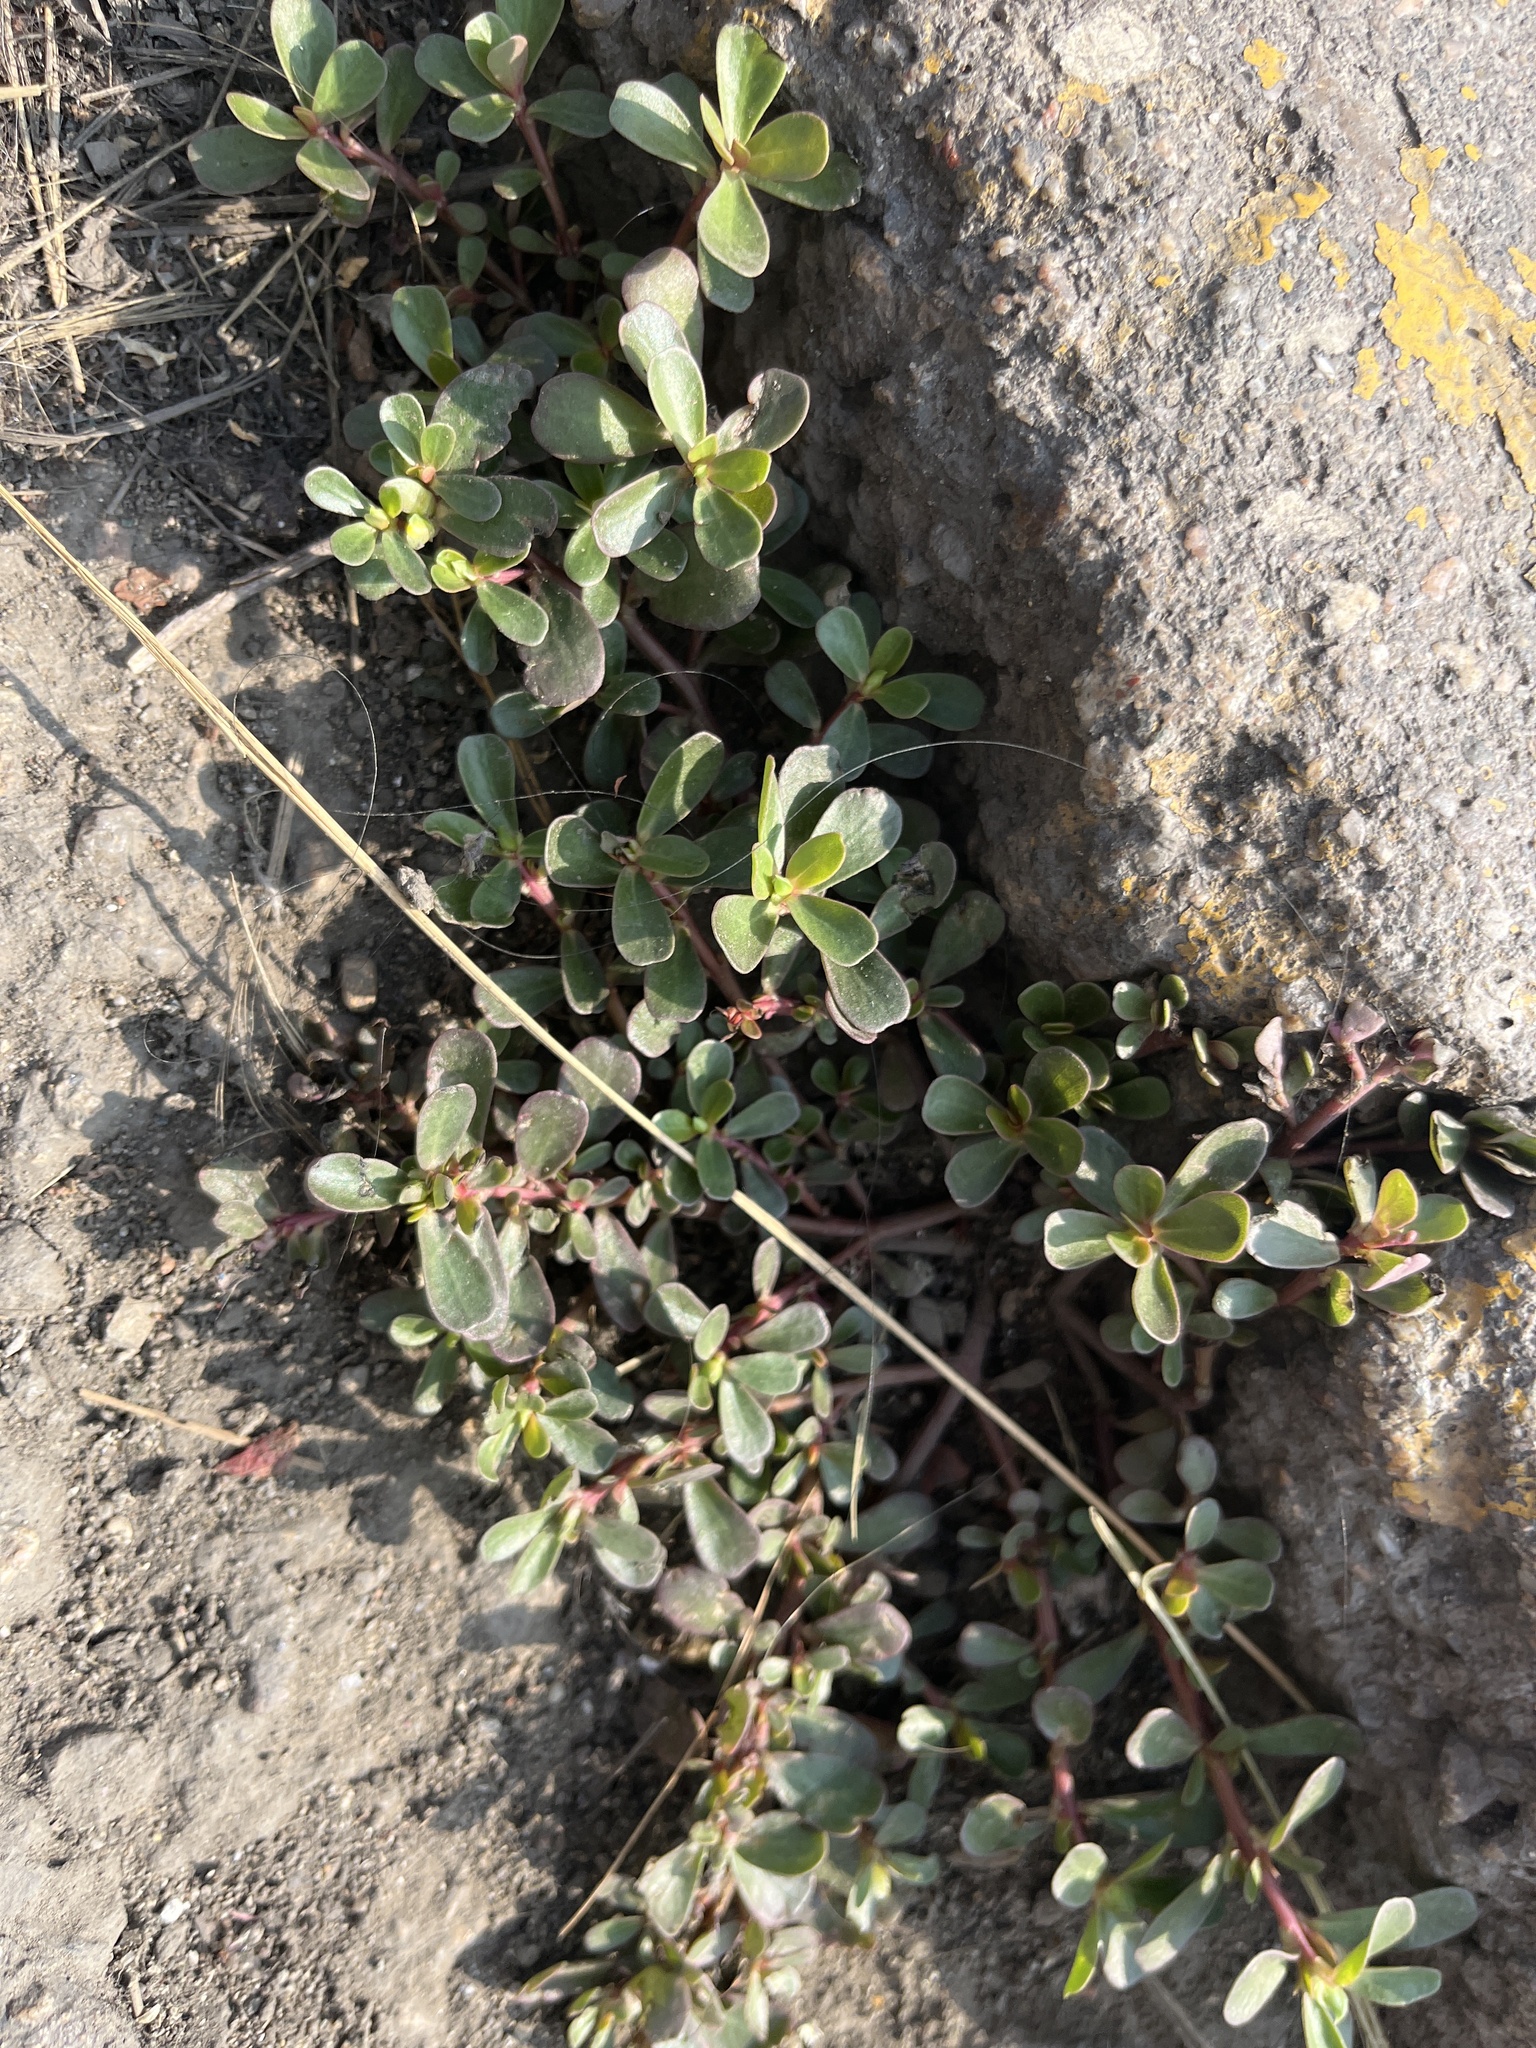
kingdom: Plantae
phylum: Tracheophyta
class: Magnoliopsida
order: Caryophyllales
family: Portulacaceae
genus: Portulaca
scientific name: Portulaca oleracea
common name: Common purslane
